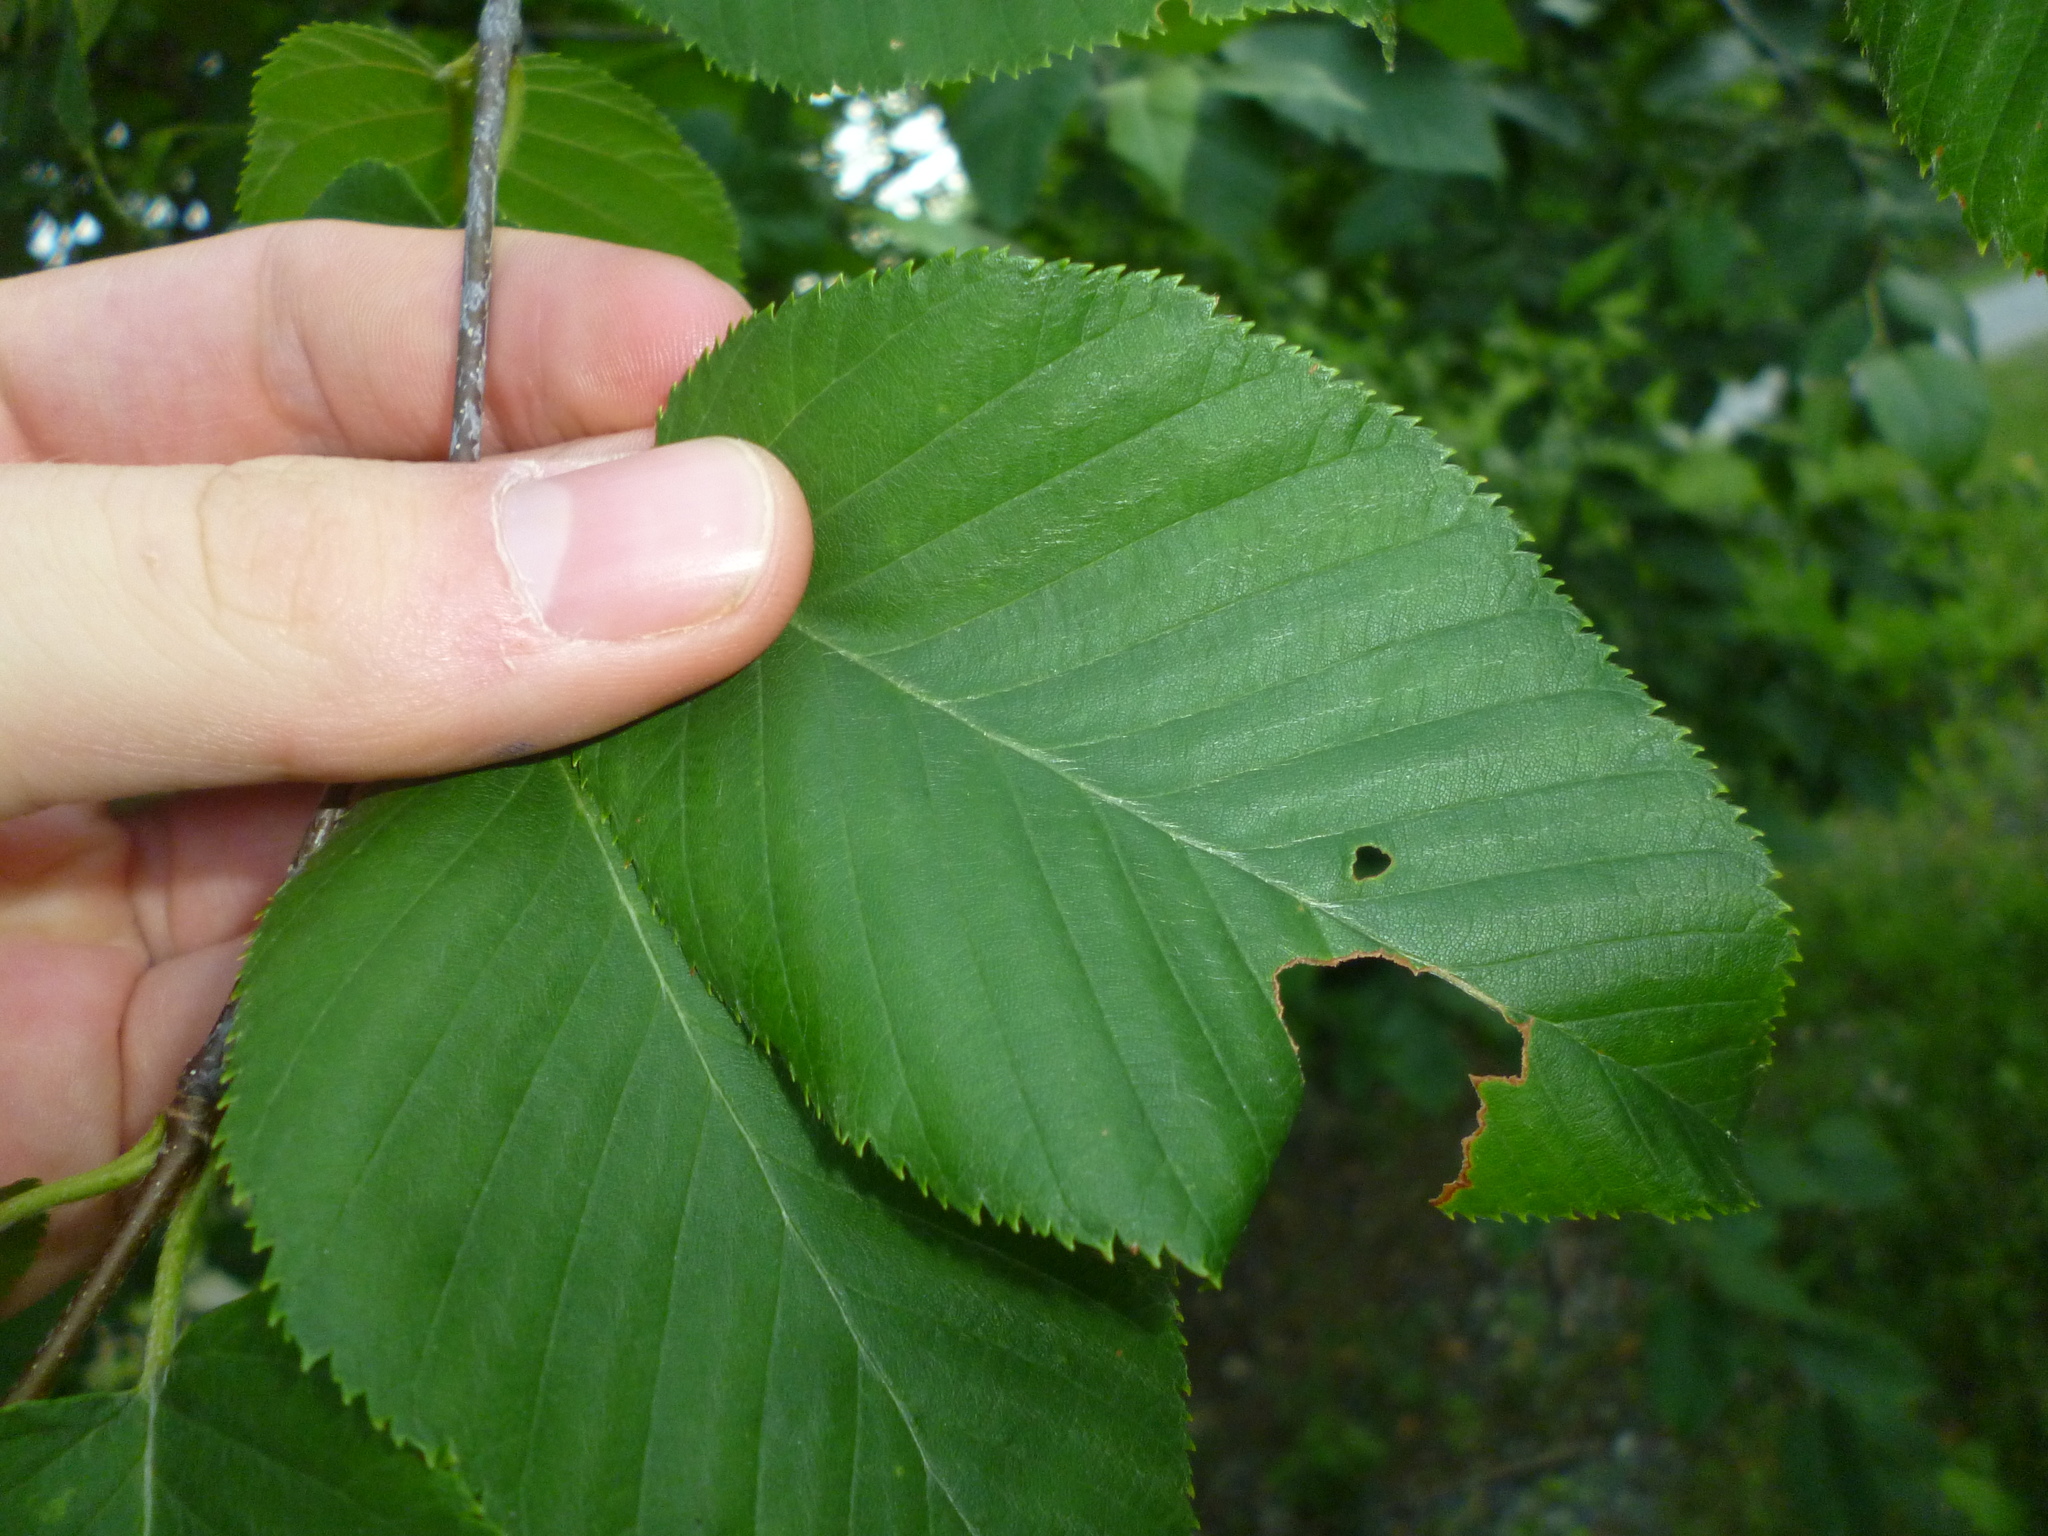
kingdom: Plantae
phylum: Tracheophyta
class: Magnoliopsida
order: Fagales
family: Betulaceae
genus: Betula
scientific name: Betula lenta
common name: Black birch
